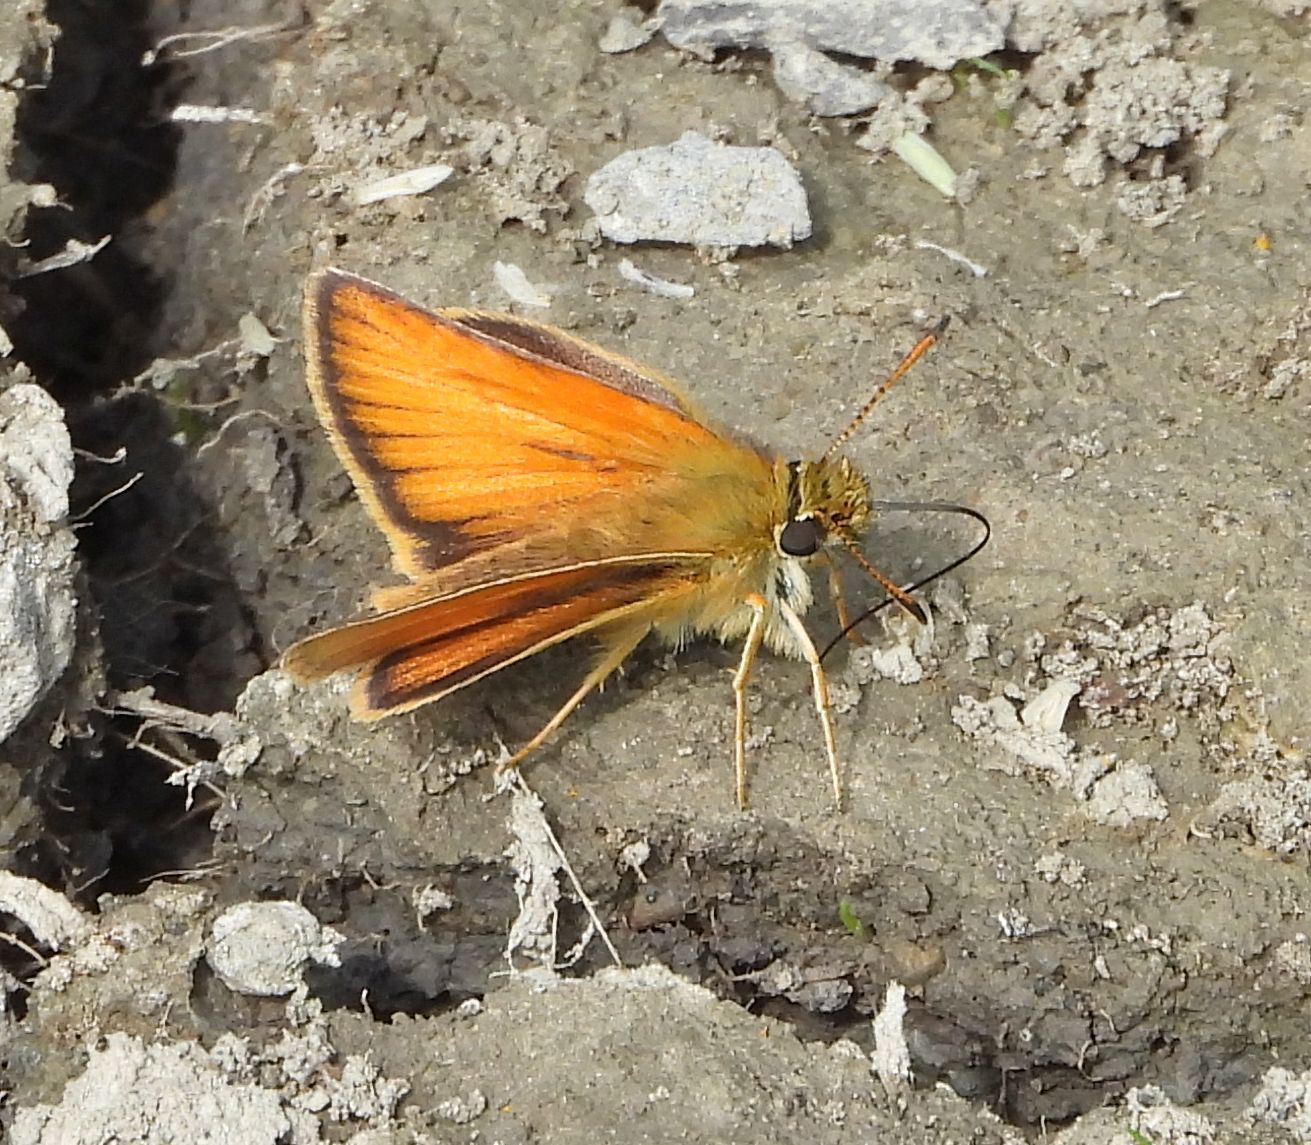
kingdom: Animalia
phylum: Arthropoda
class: Insecta
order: Lepidoptera
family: Hesperiidae
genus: Thymelicus
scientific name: Thymelicus lineola
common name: Essex skipper
